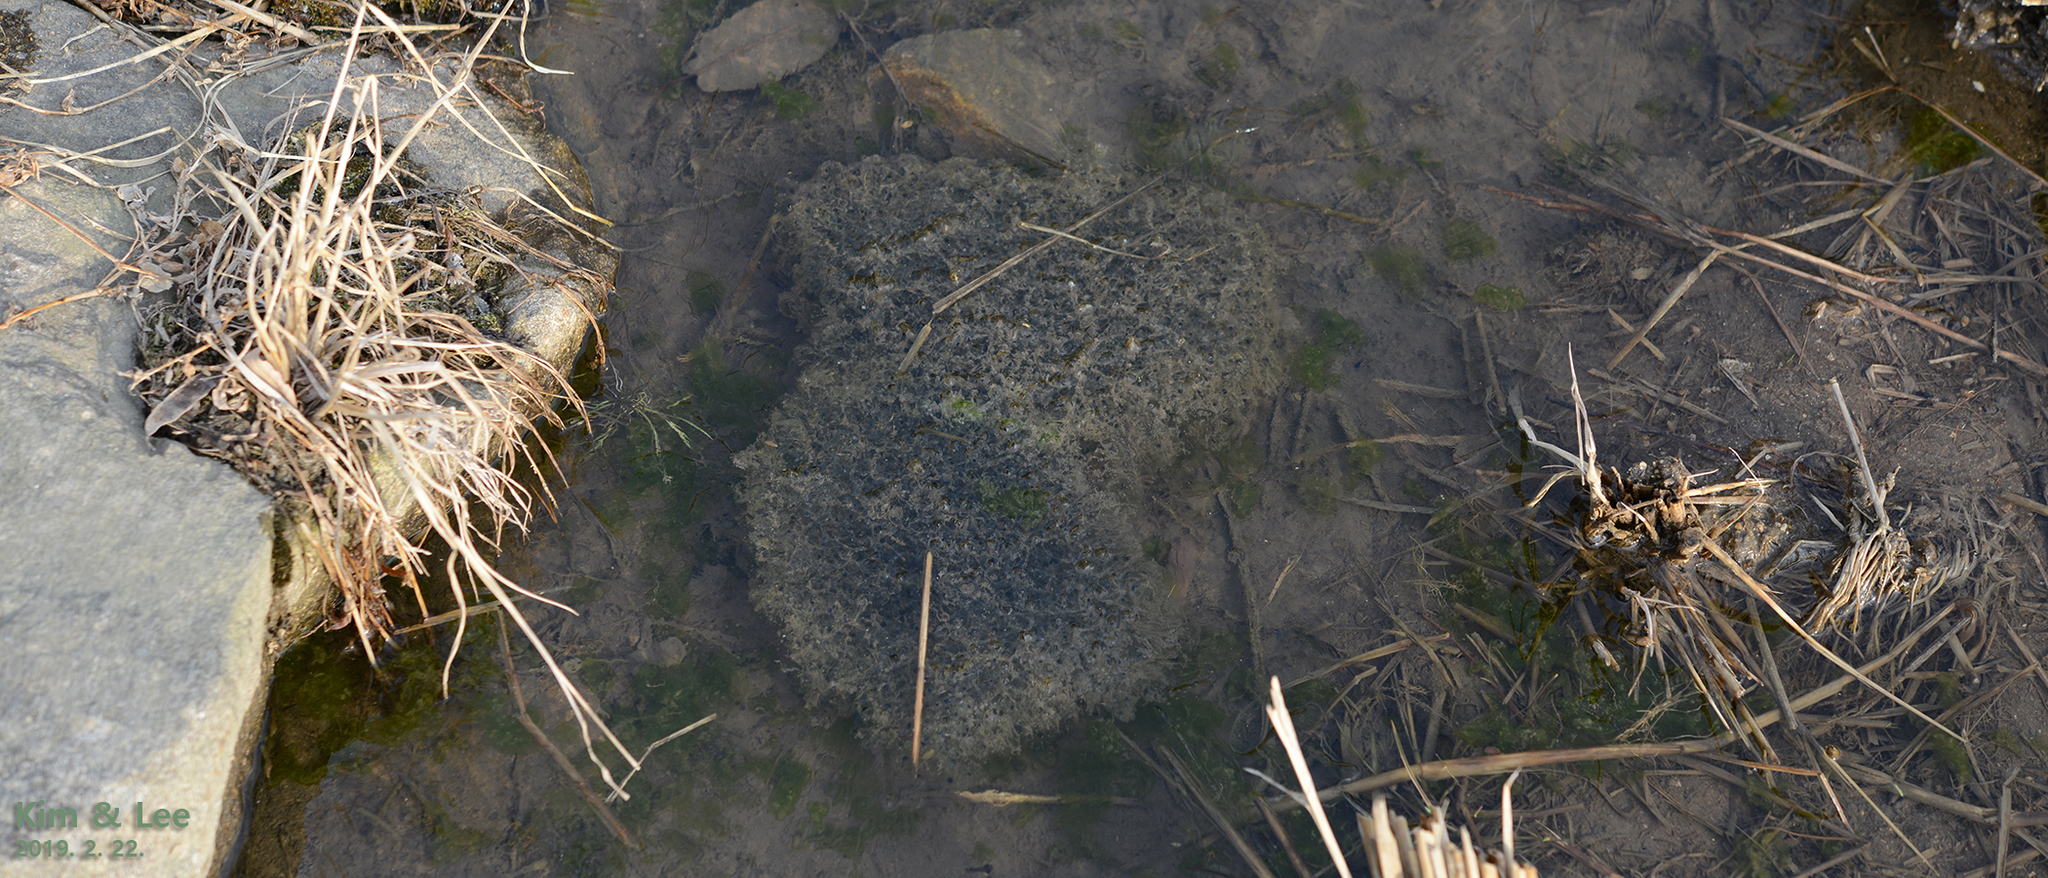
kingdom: Animalia
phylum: Chordata
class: Amphibia
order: Anura
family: Ranidae
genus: Rana
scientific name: Rana uenoi
